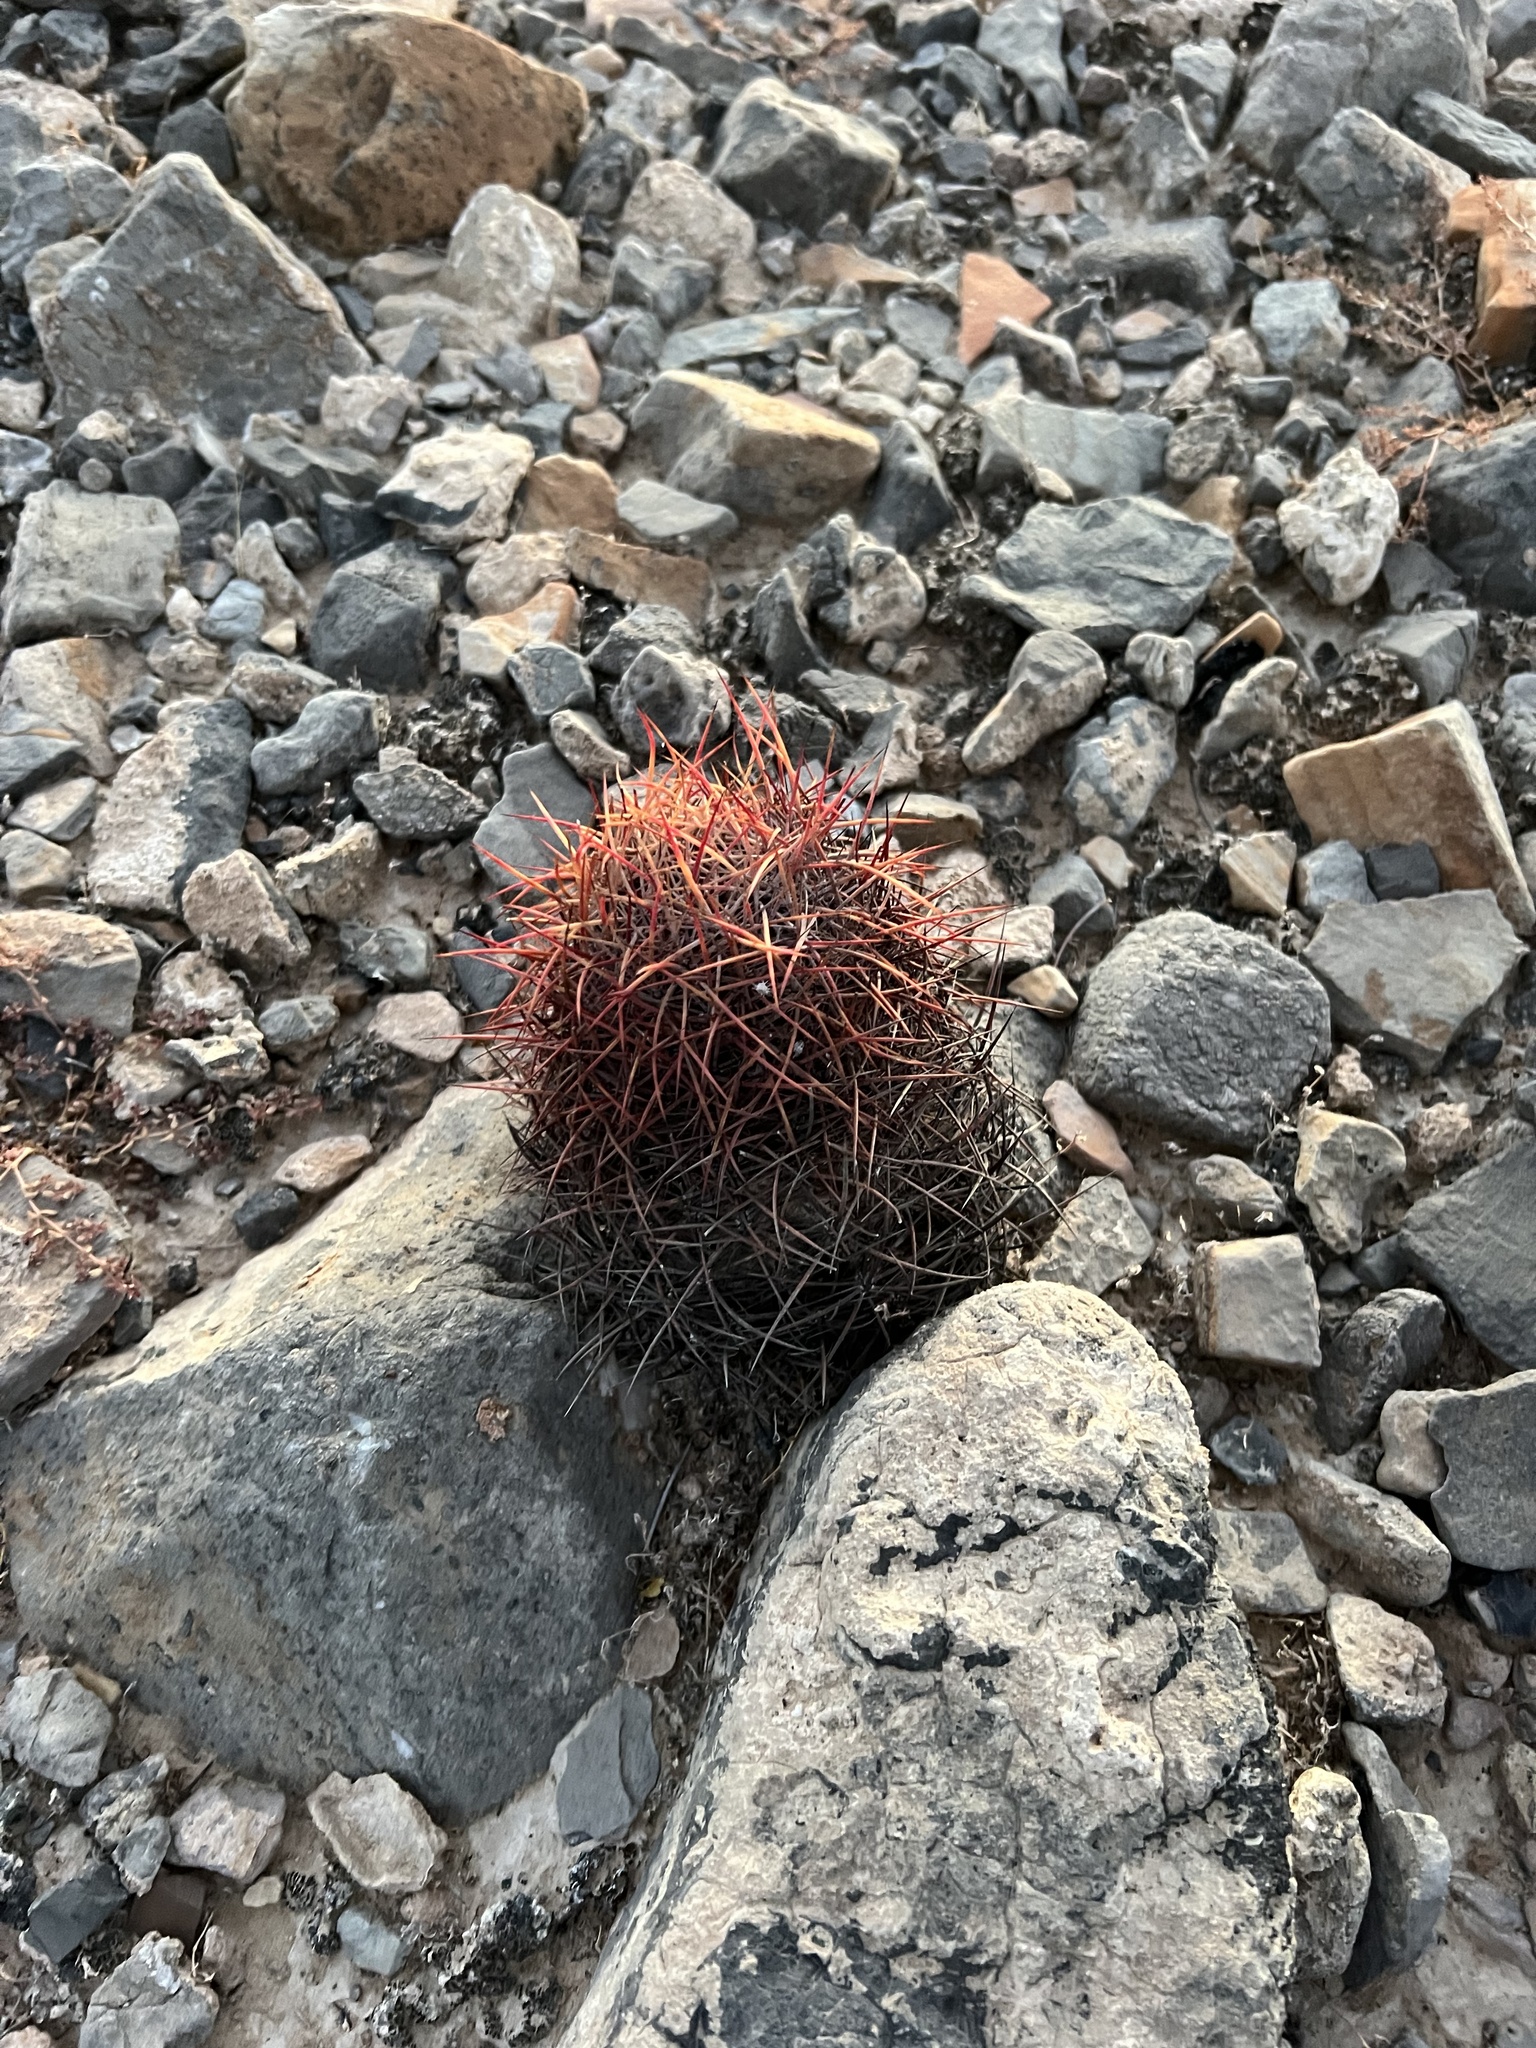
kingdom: Plantae
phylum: Tracheophyta
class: Magnoliopsida
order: Caryophyllales
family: Cactaceae
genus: Sclerocactus
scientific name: Sclerocactus johnsonii
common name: Eight-spine fishhook cactus
